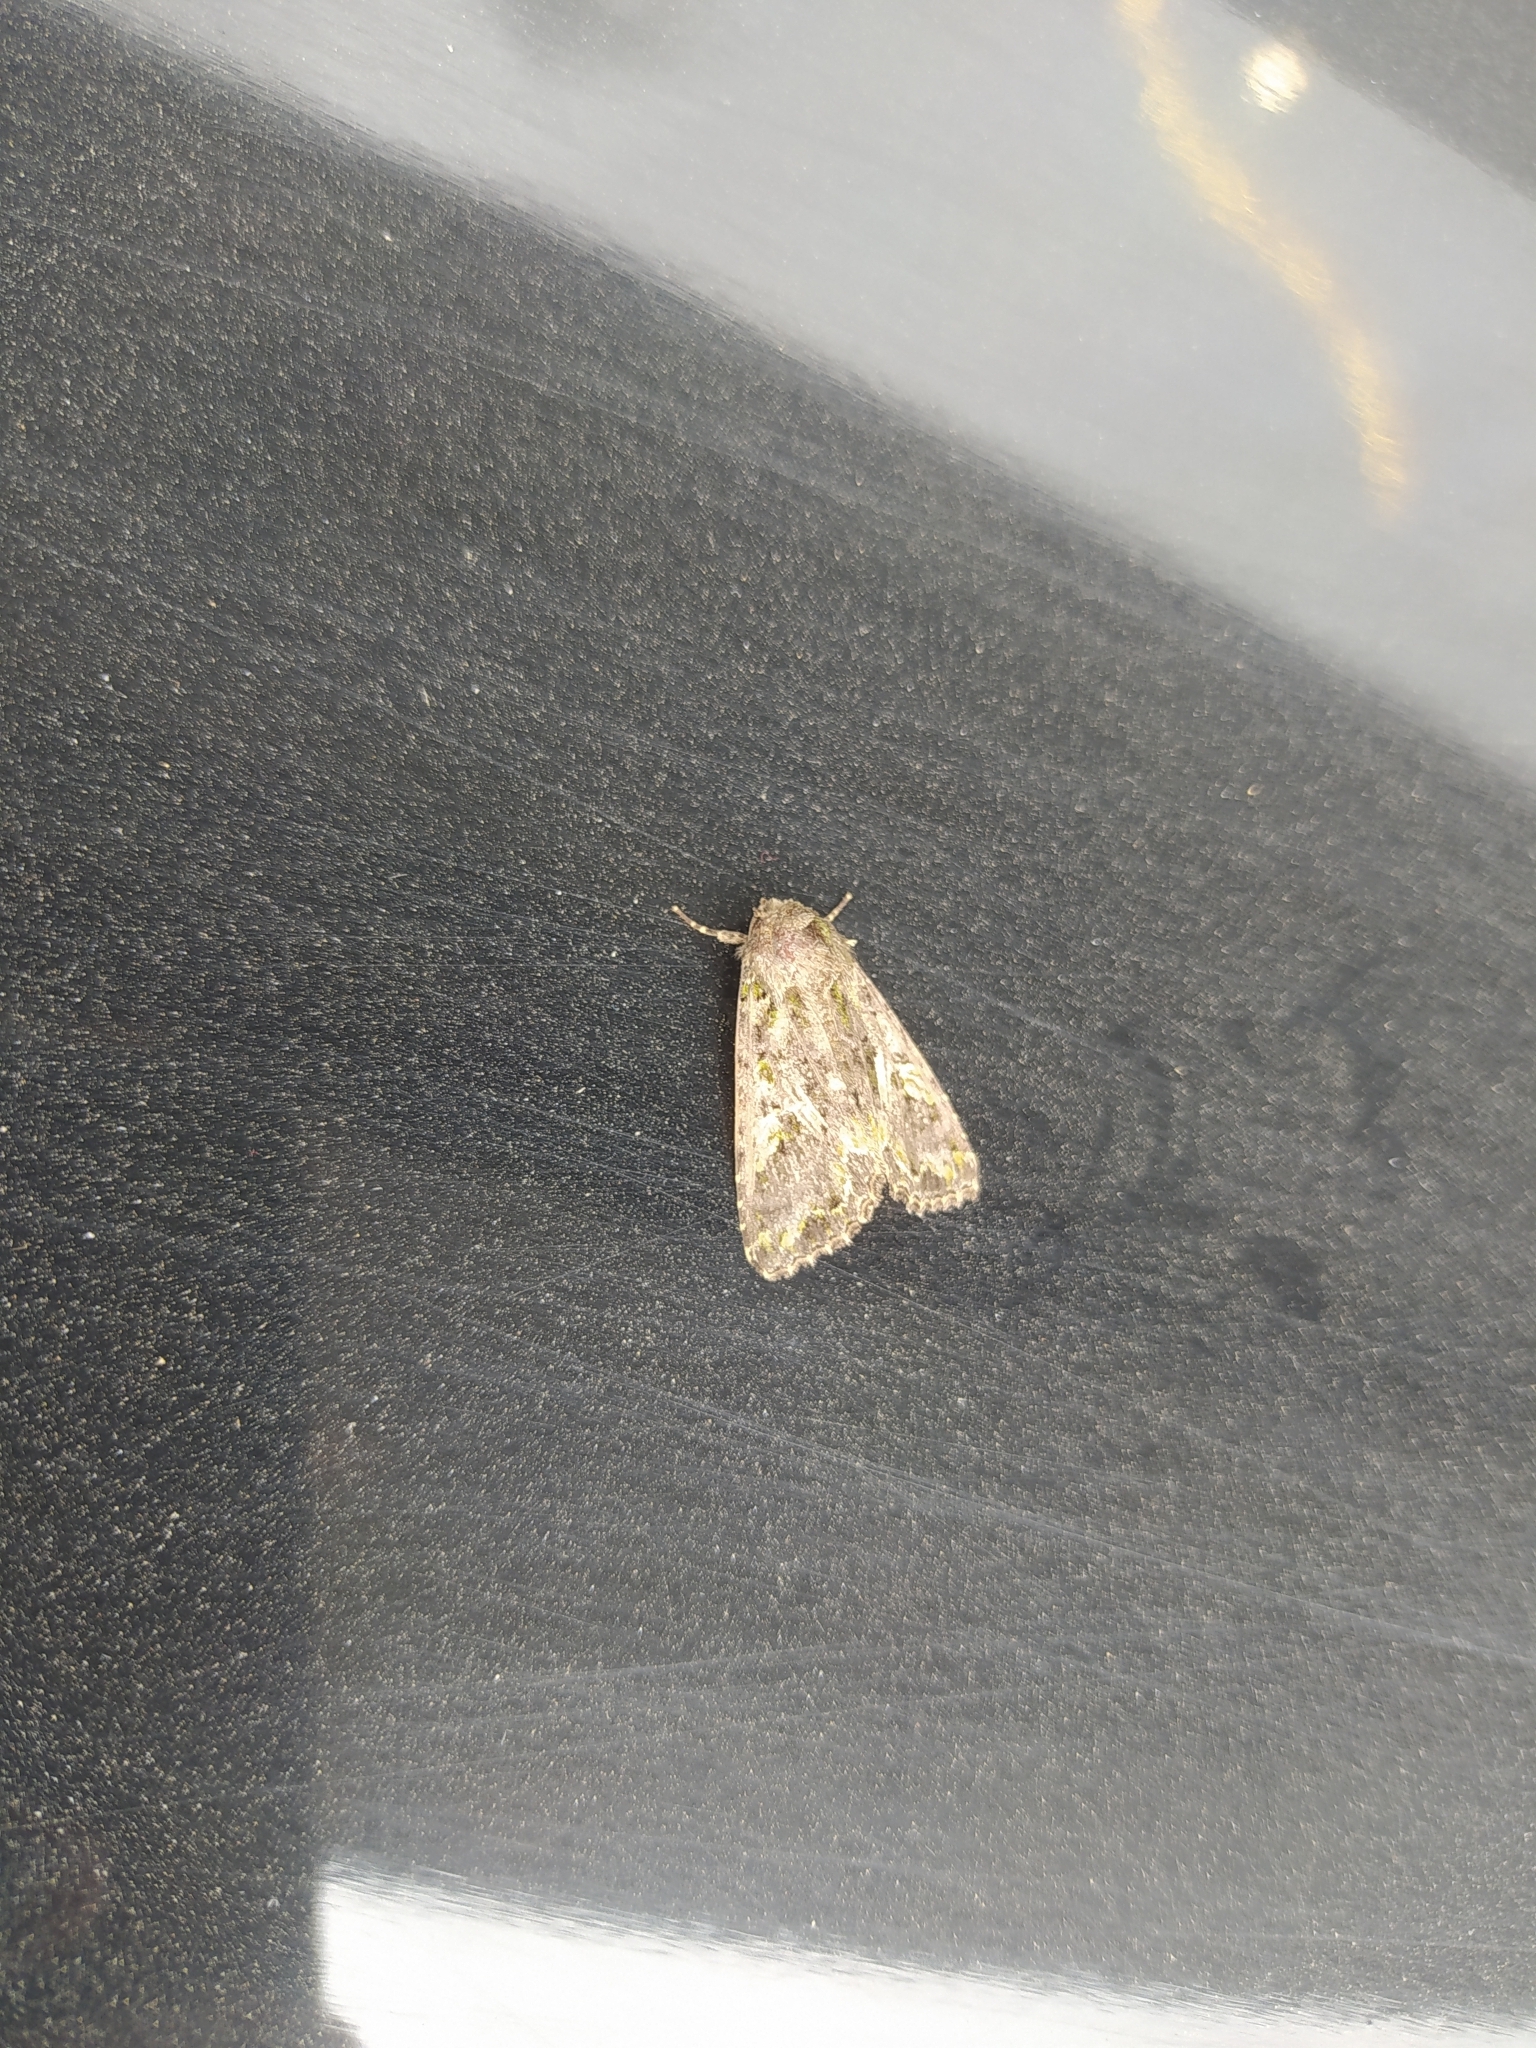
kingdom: Animalia
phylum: Arthropoda
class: Insecta
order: Lepidoptera
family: Noctuidae
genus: Trachea
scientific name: Trachea atriplicis
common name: Orache moth
